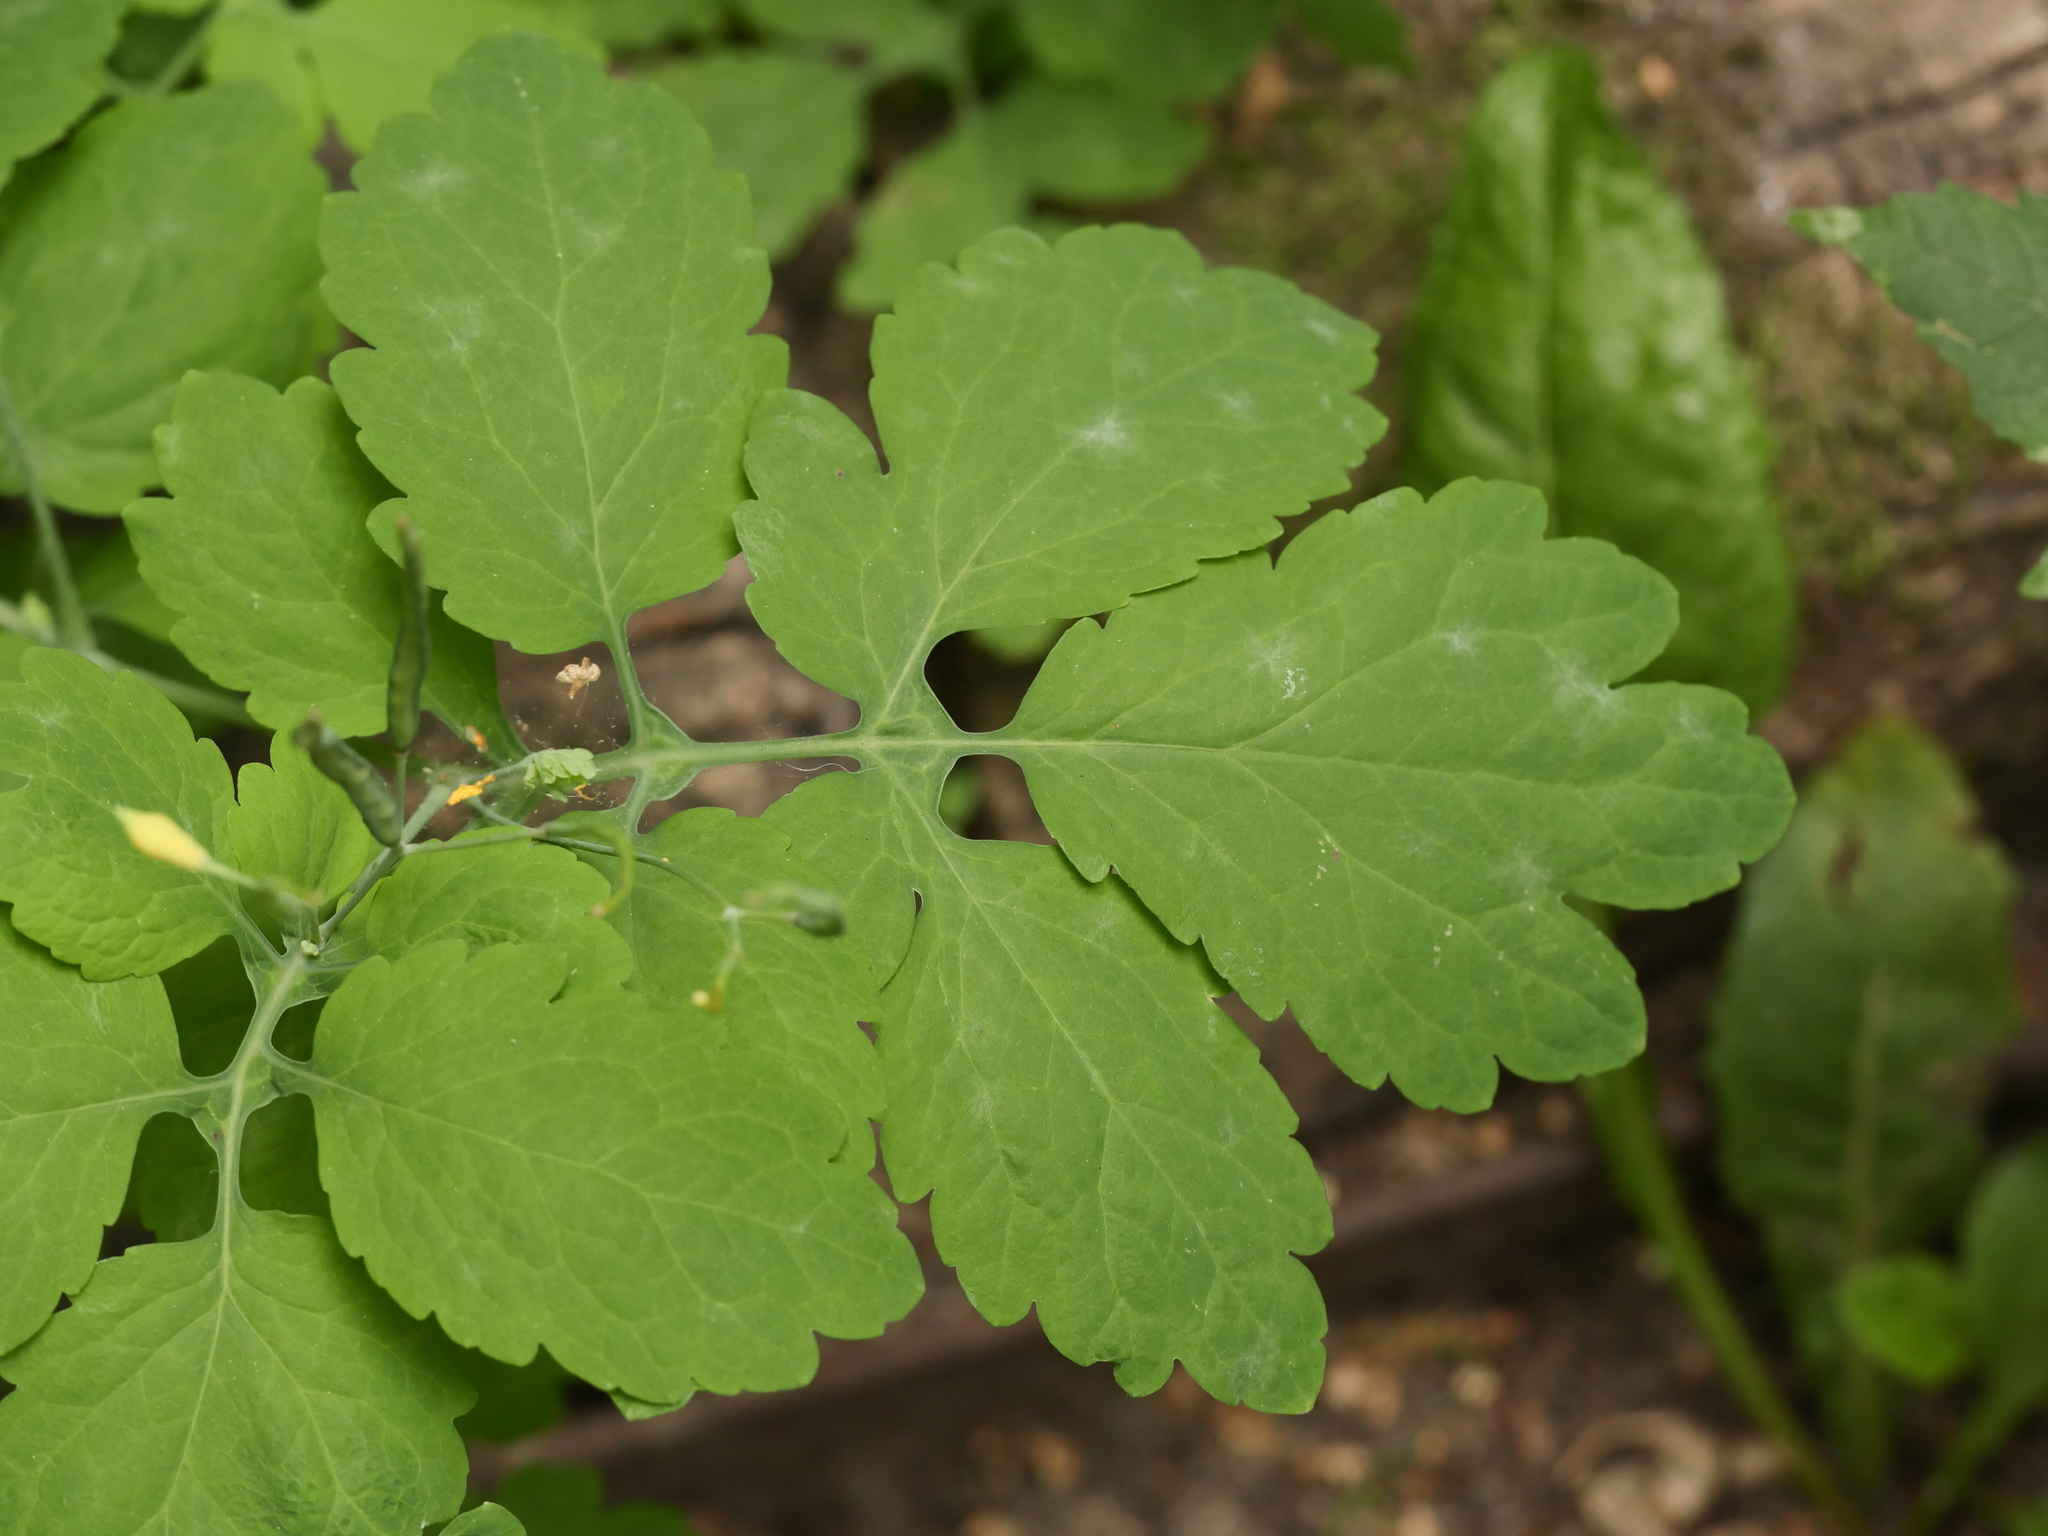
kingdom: Plantae
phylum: Tracheophyta
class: Magnoliopsida
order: Ranunculales
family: Papaveraceae
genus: Chelidonium
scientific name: Chelidonium majus
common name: Greater celandine
